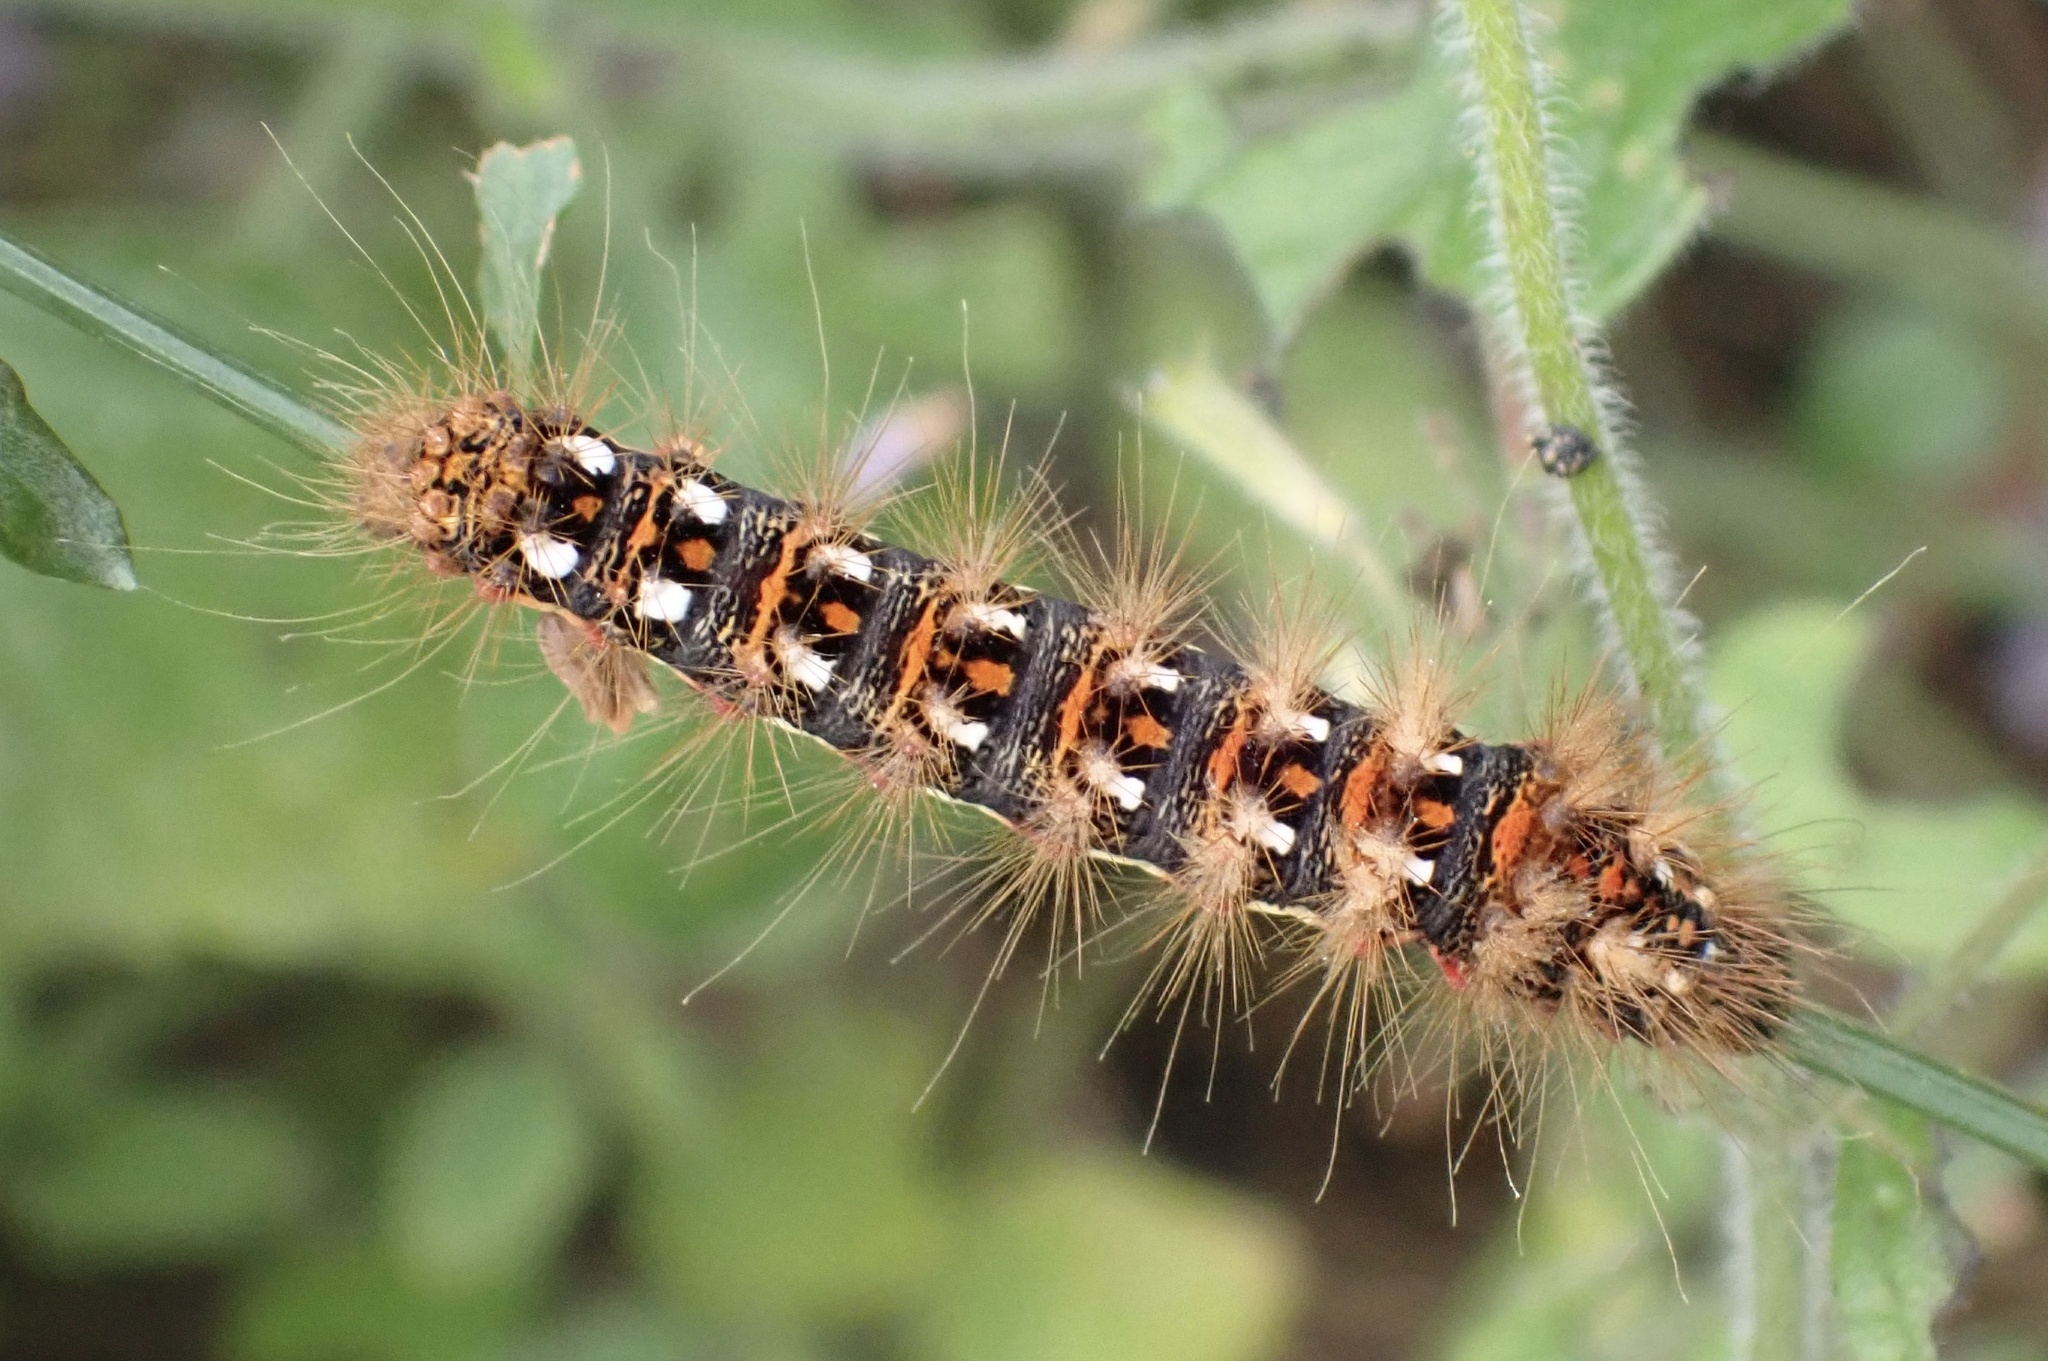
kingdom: Animalia
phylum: Arthropoda
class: Insecta
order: Lepidoptera
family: Noctuidae
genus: Acronicta
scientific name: Acronicta rumicis
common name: Knot grass
